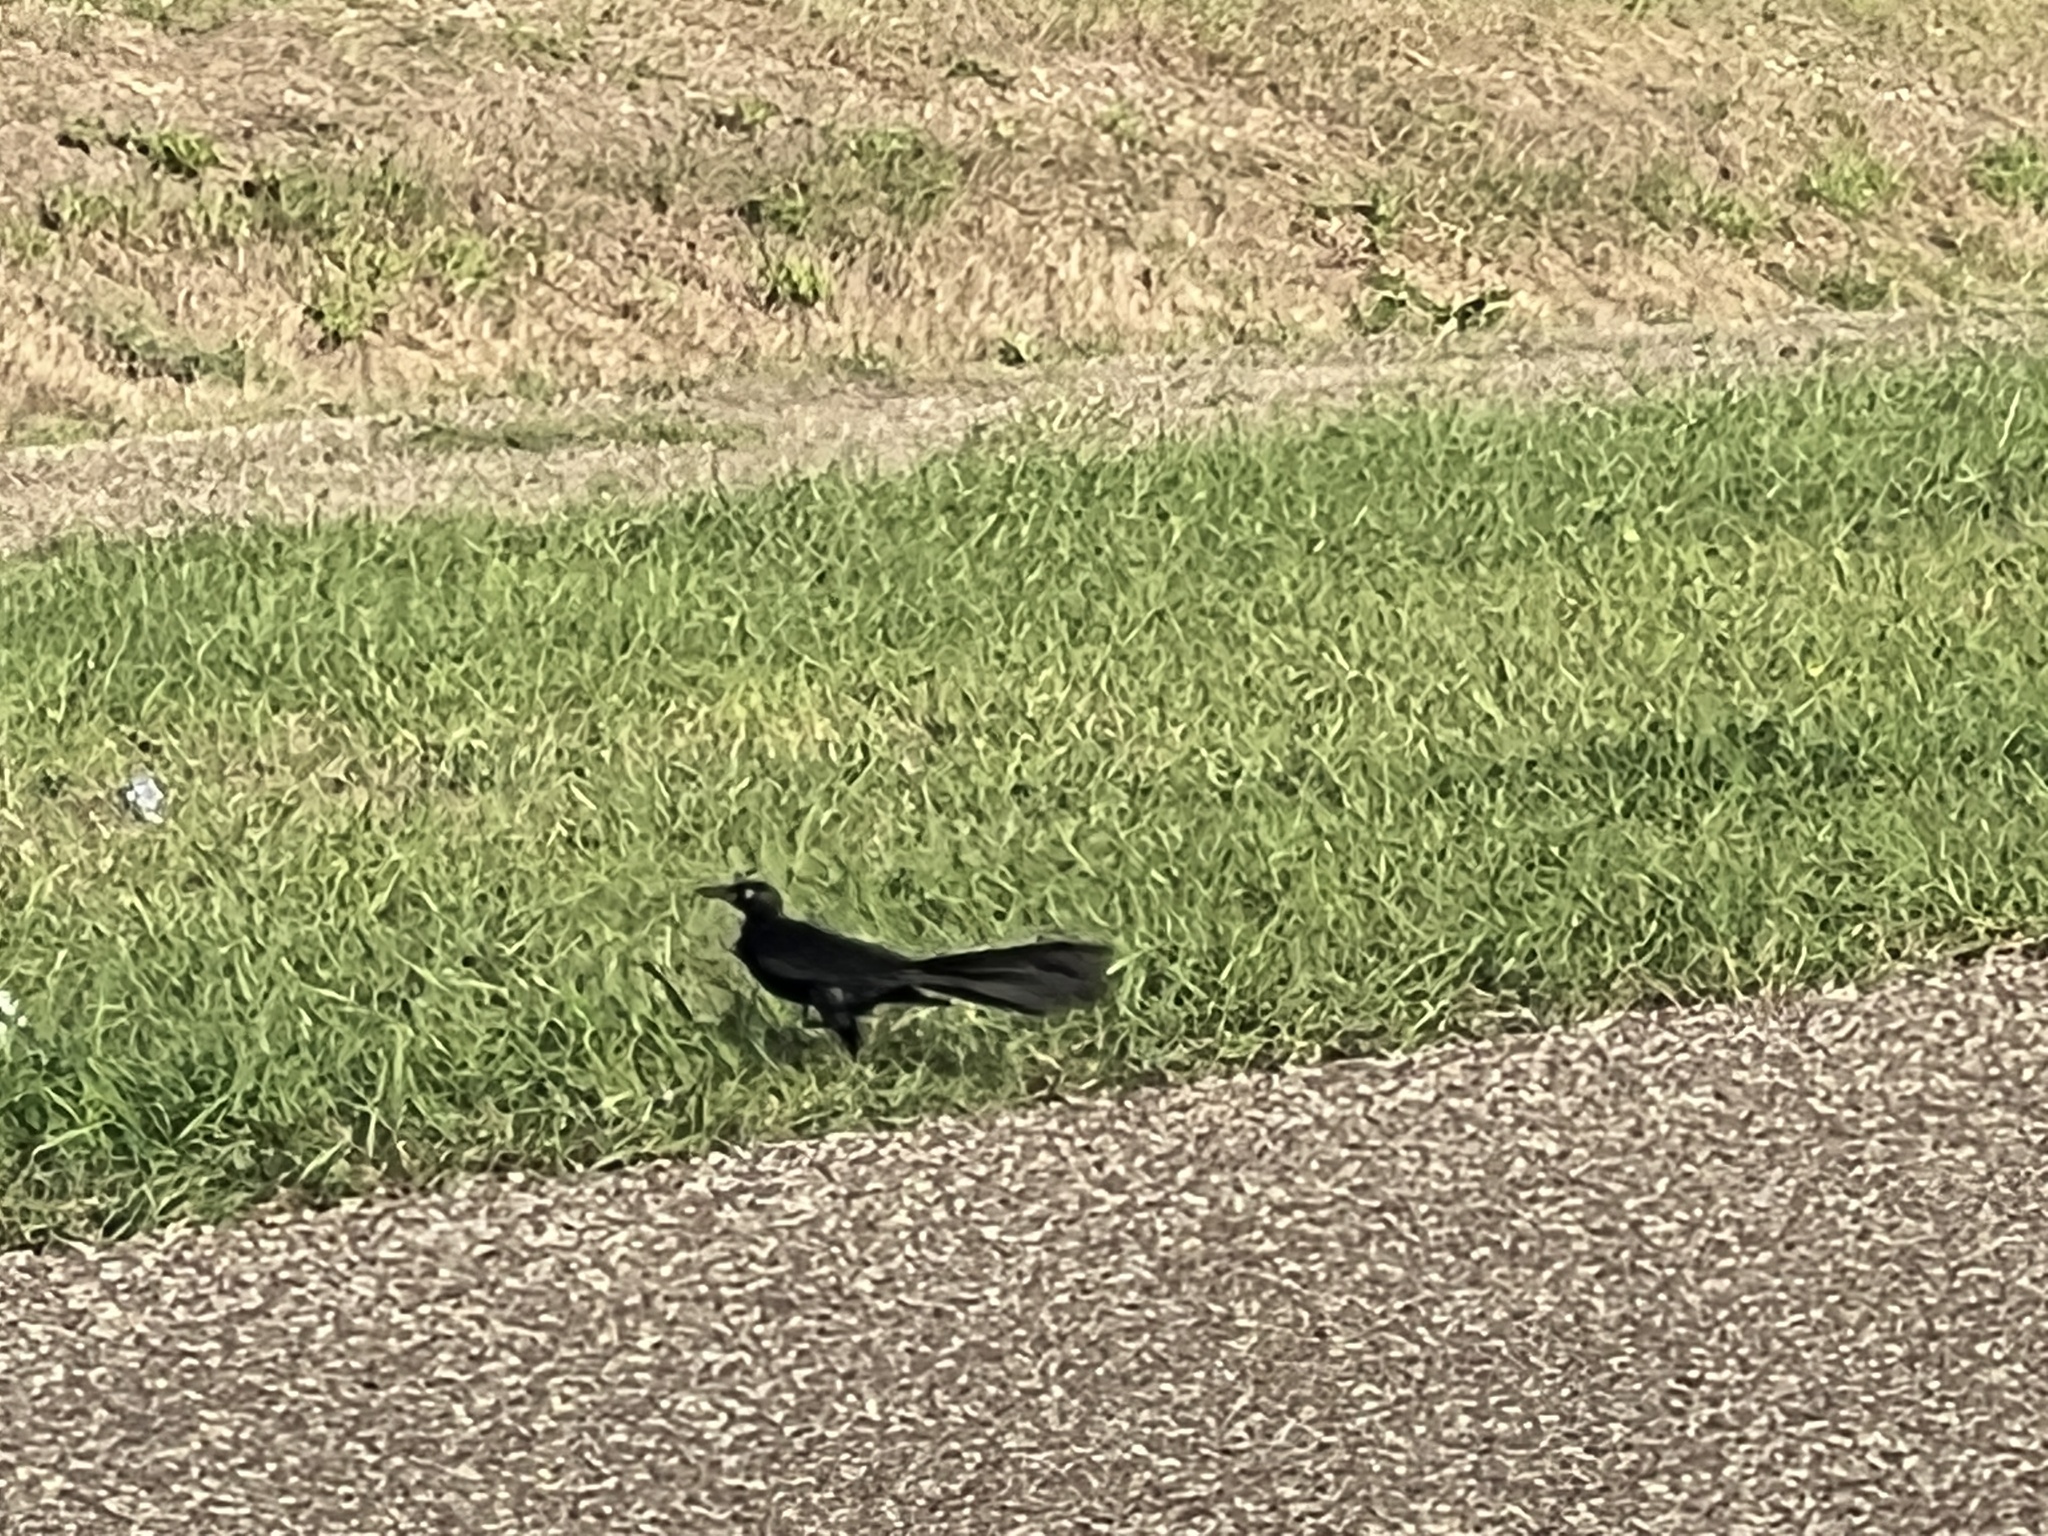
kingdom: Animalia
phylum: Chordata
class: Aves
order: Passeriformes
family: Icteridae
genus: Quiscalus
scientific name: Quiscalus mexicanus
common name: Great-tailed grackle
